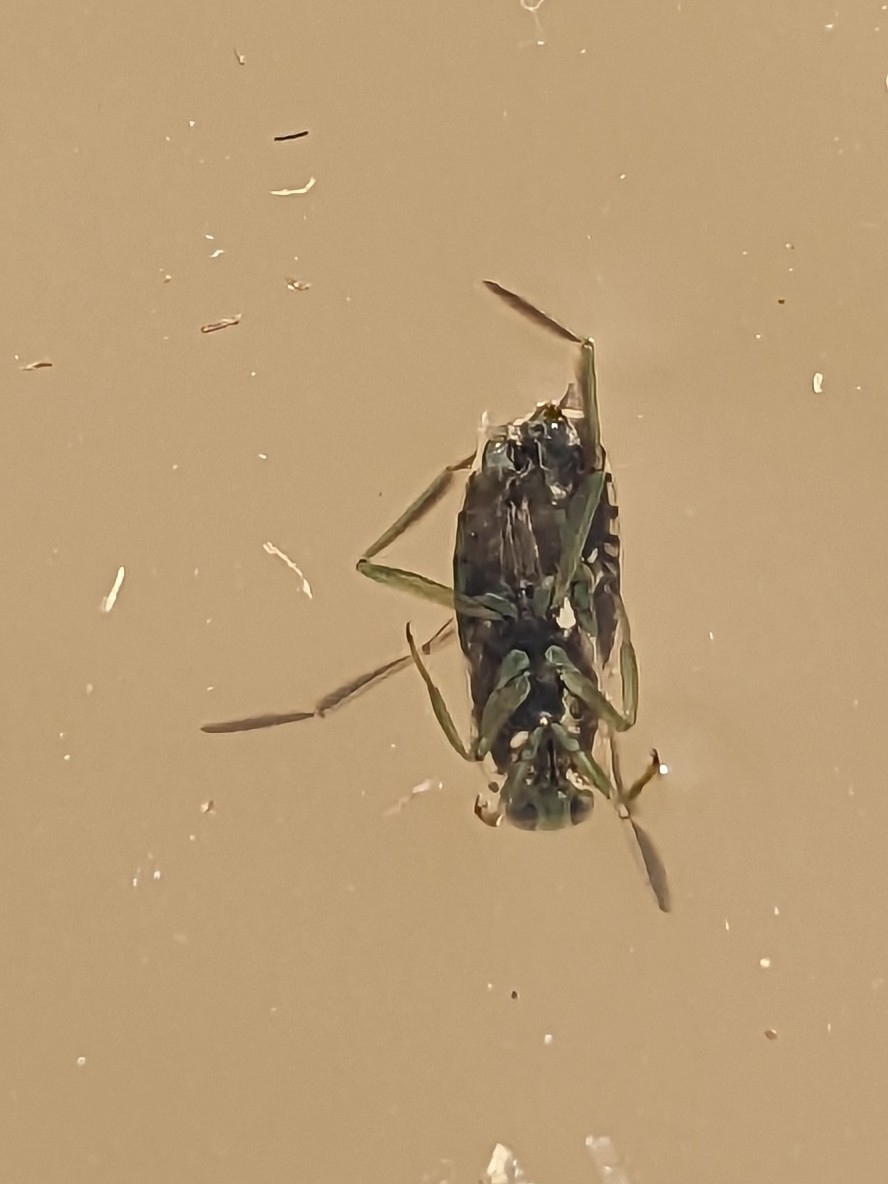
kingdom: Animalia
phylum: Arthropoda
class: Insecta
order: Hemiptera
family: Notonectidae
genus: Notonecta
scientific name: Notonecta
